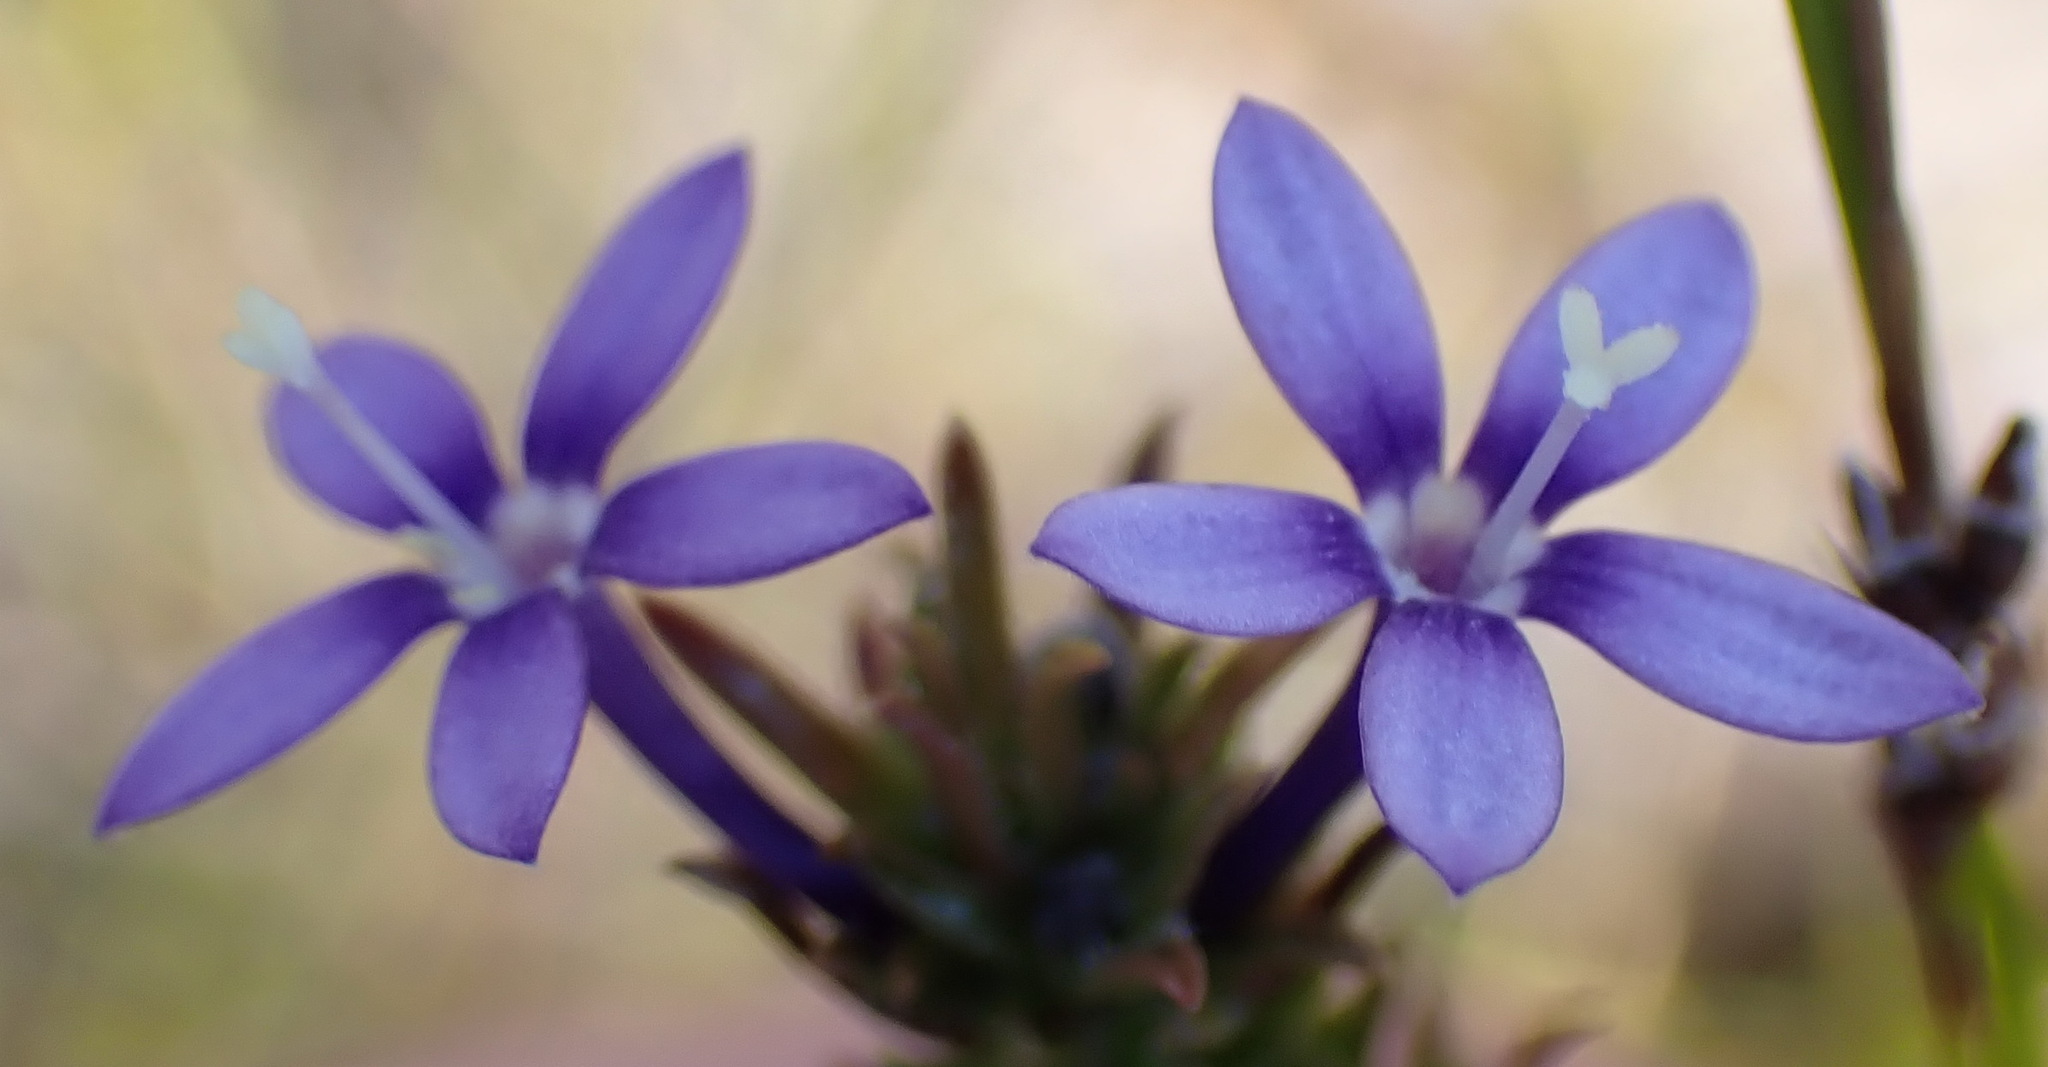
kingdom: Plantae
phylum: Tracheophyta
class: Magnoliopsida
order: Asterales
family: Campanulaceae
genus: Theilera
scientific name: Theilera guthriei
